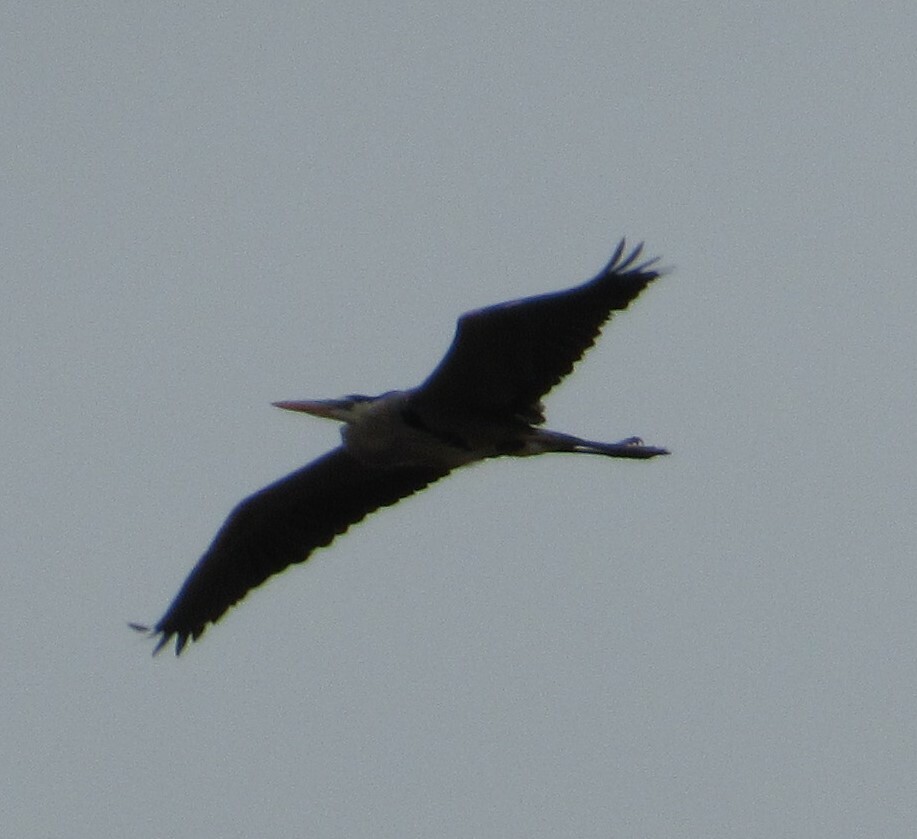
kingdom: Animalia
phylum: Chordata
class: Aves
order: Pelecaniformes
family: Ardeidae
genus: Ardea
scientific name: Ardea herodias
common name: Great blue heron
